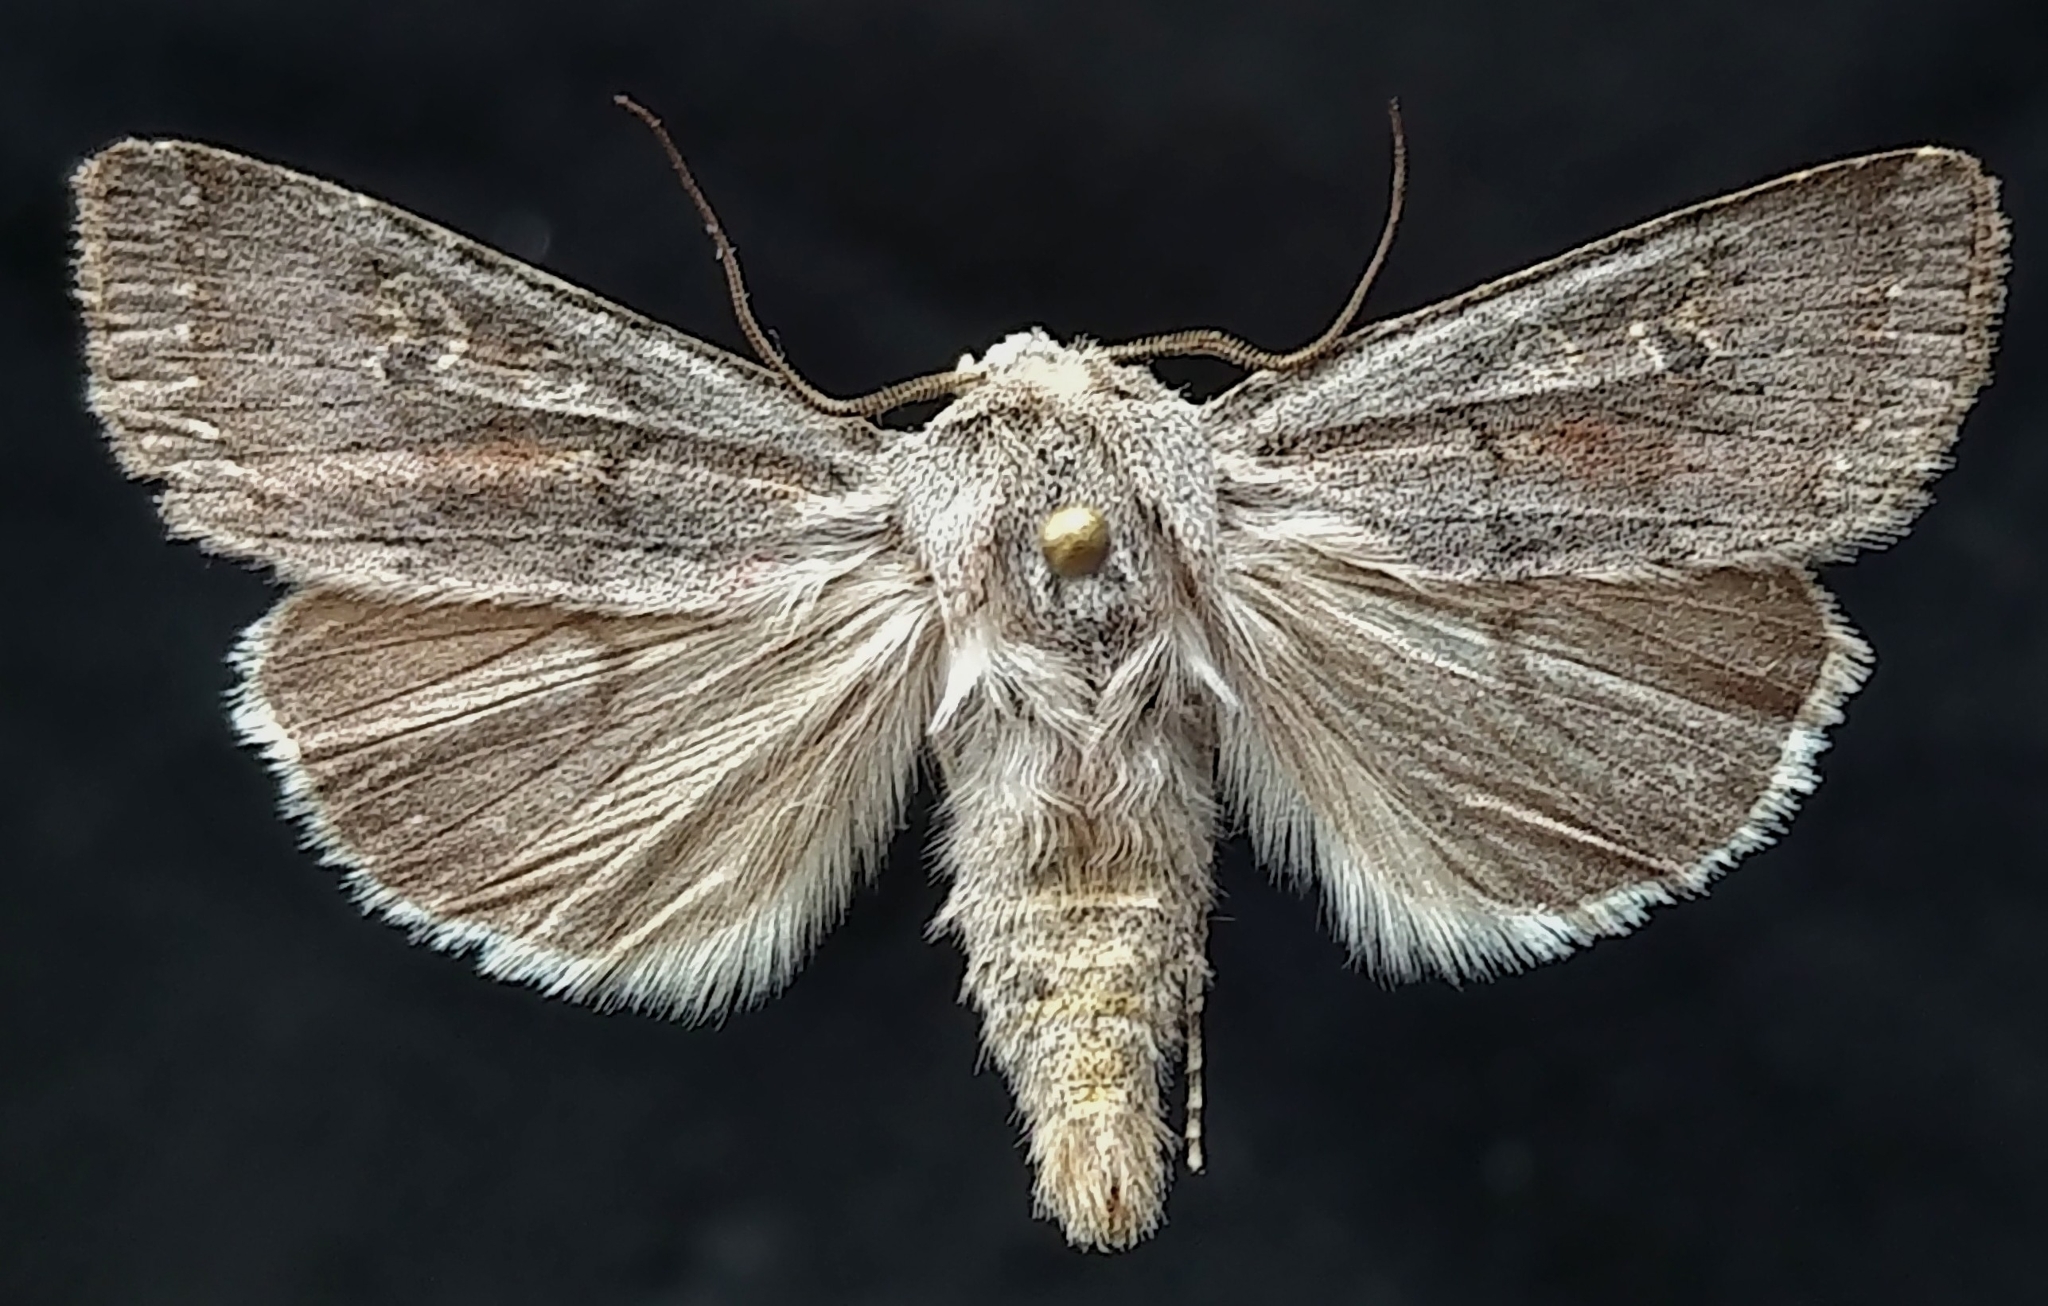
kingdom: Animalia
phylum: Arthropoda
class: Insecta
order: Lepidoptera
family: Noctuidae
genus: Euxoa
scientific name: Euxoa quebecensis
